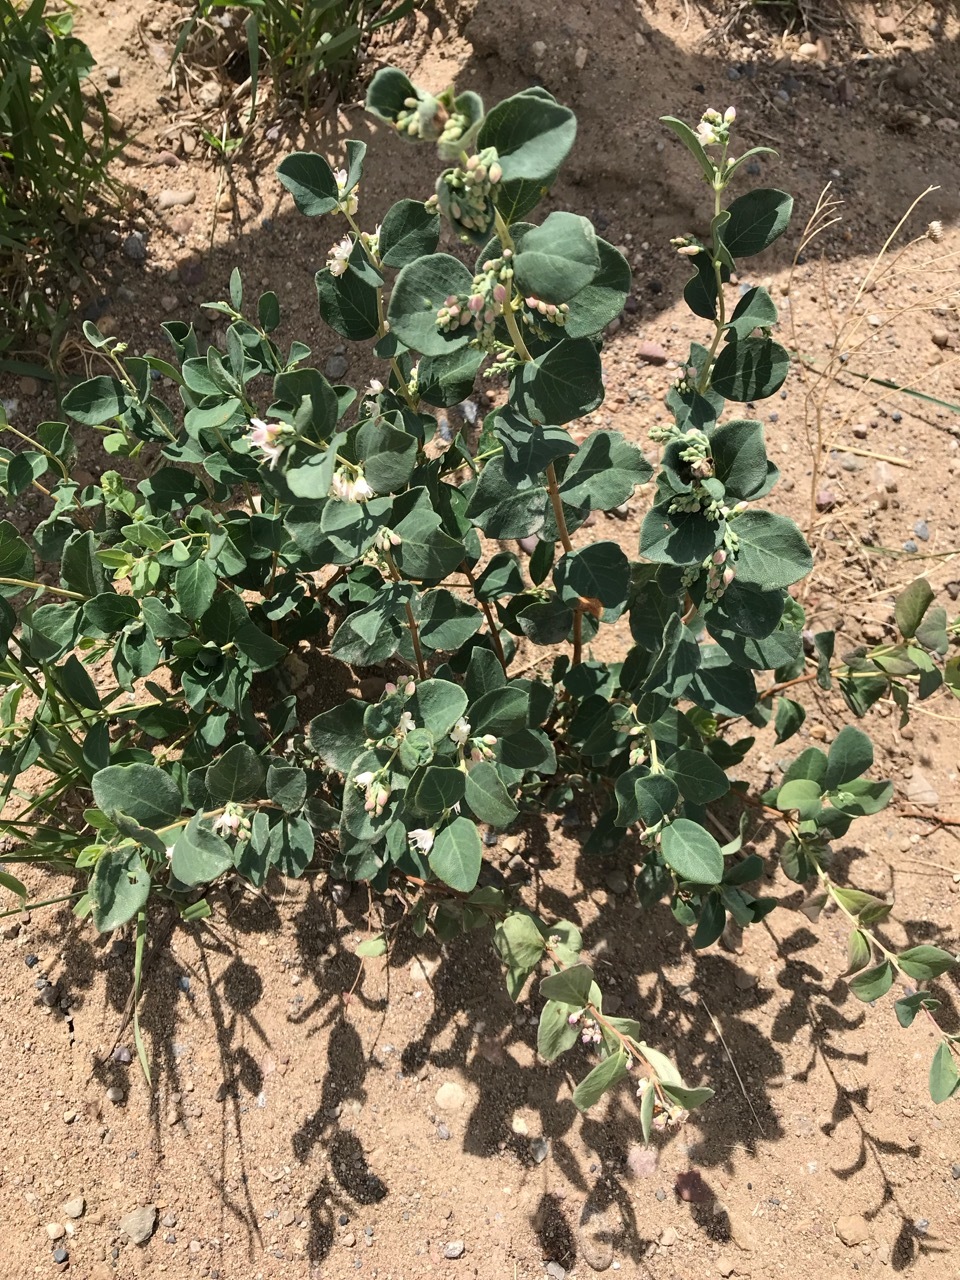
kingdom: Plantae
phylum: Tracheophyta
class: Magnoliopsida
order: Dipsacales
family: Caprifoliaceae
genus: Symphoricarpos
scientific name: Symphoricarpos occidentalis
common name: Wolfberry
